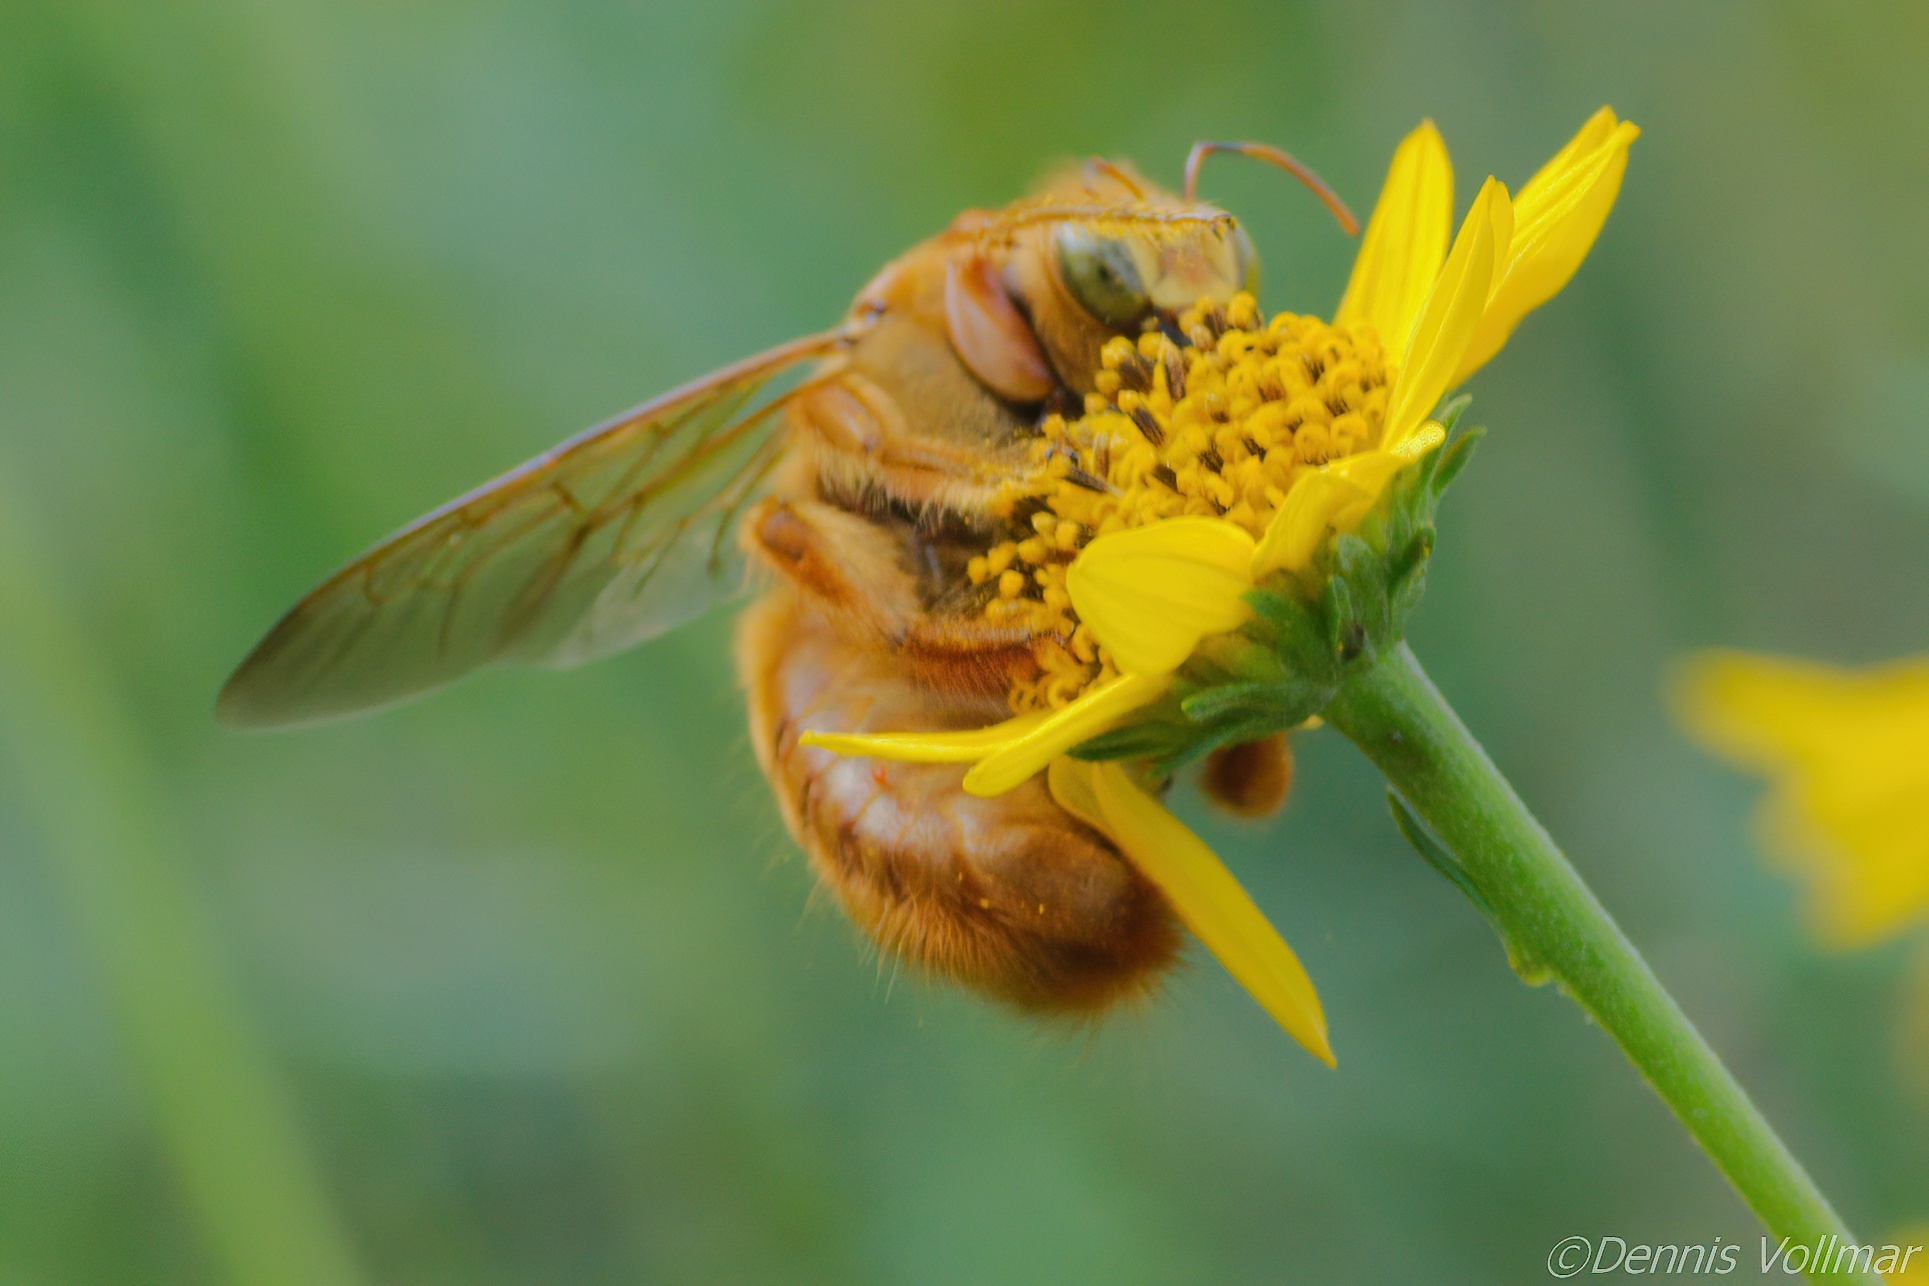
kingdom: Animalia
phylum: Arthropoda
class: Insecta
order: Hymenoptera
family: Apidae
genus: Xylocopa
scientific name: Xylocopa griswoldi
